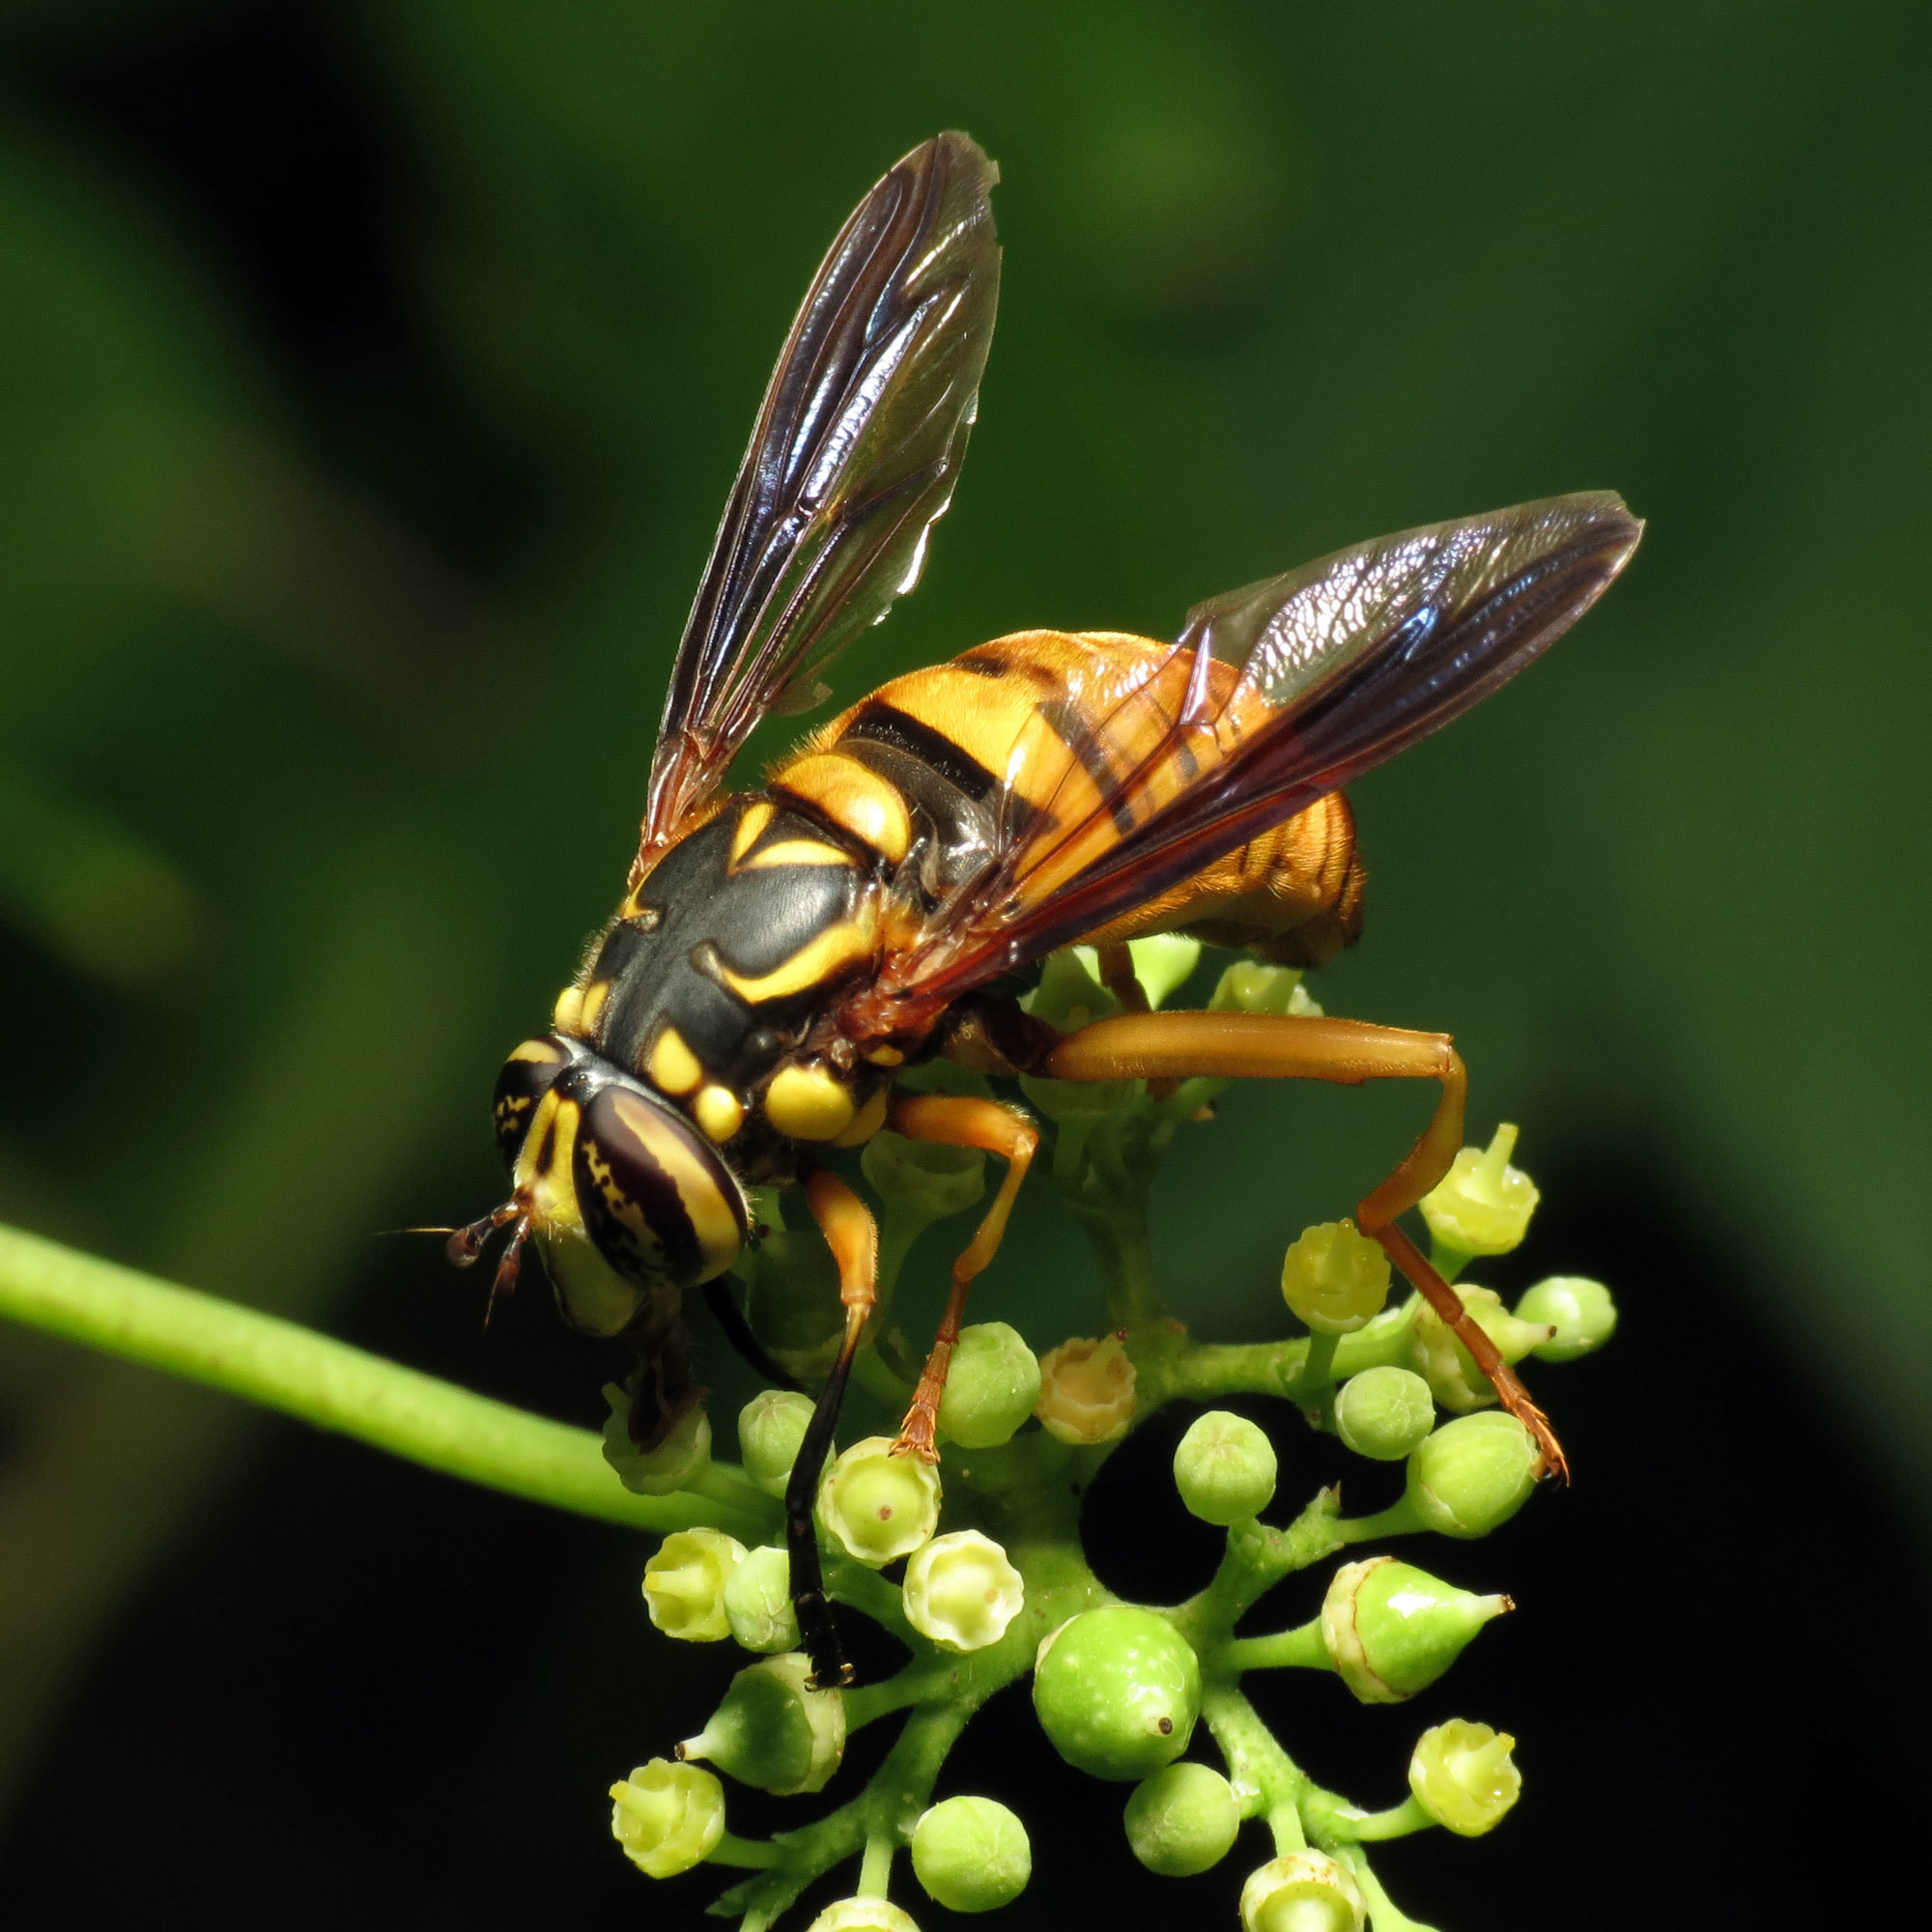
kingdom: Animalia
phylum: Arthropoda
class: Insecta
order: Diptera
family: Syrphidae
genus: Spilomyia
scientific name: Spilomyia alcimus
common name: Broad-banded hornet fly
